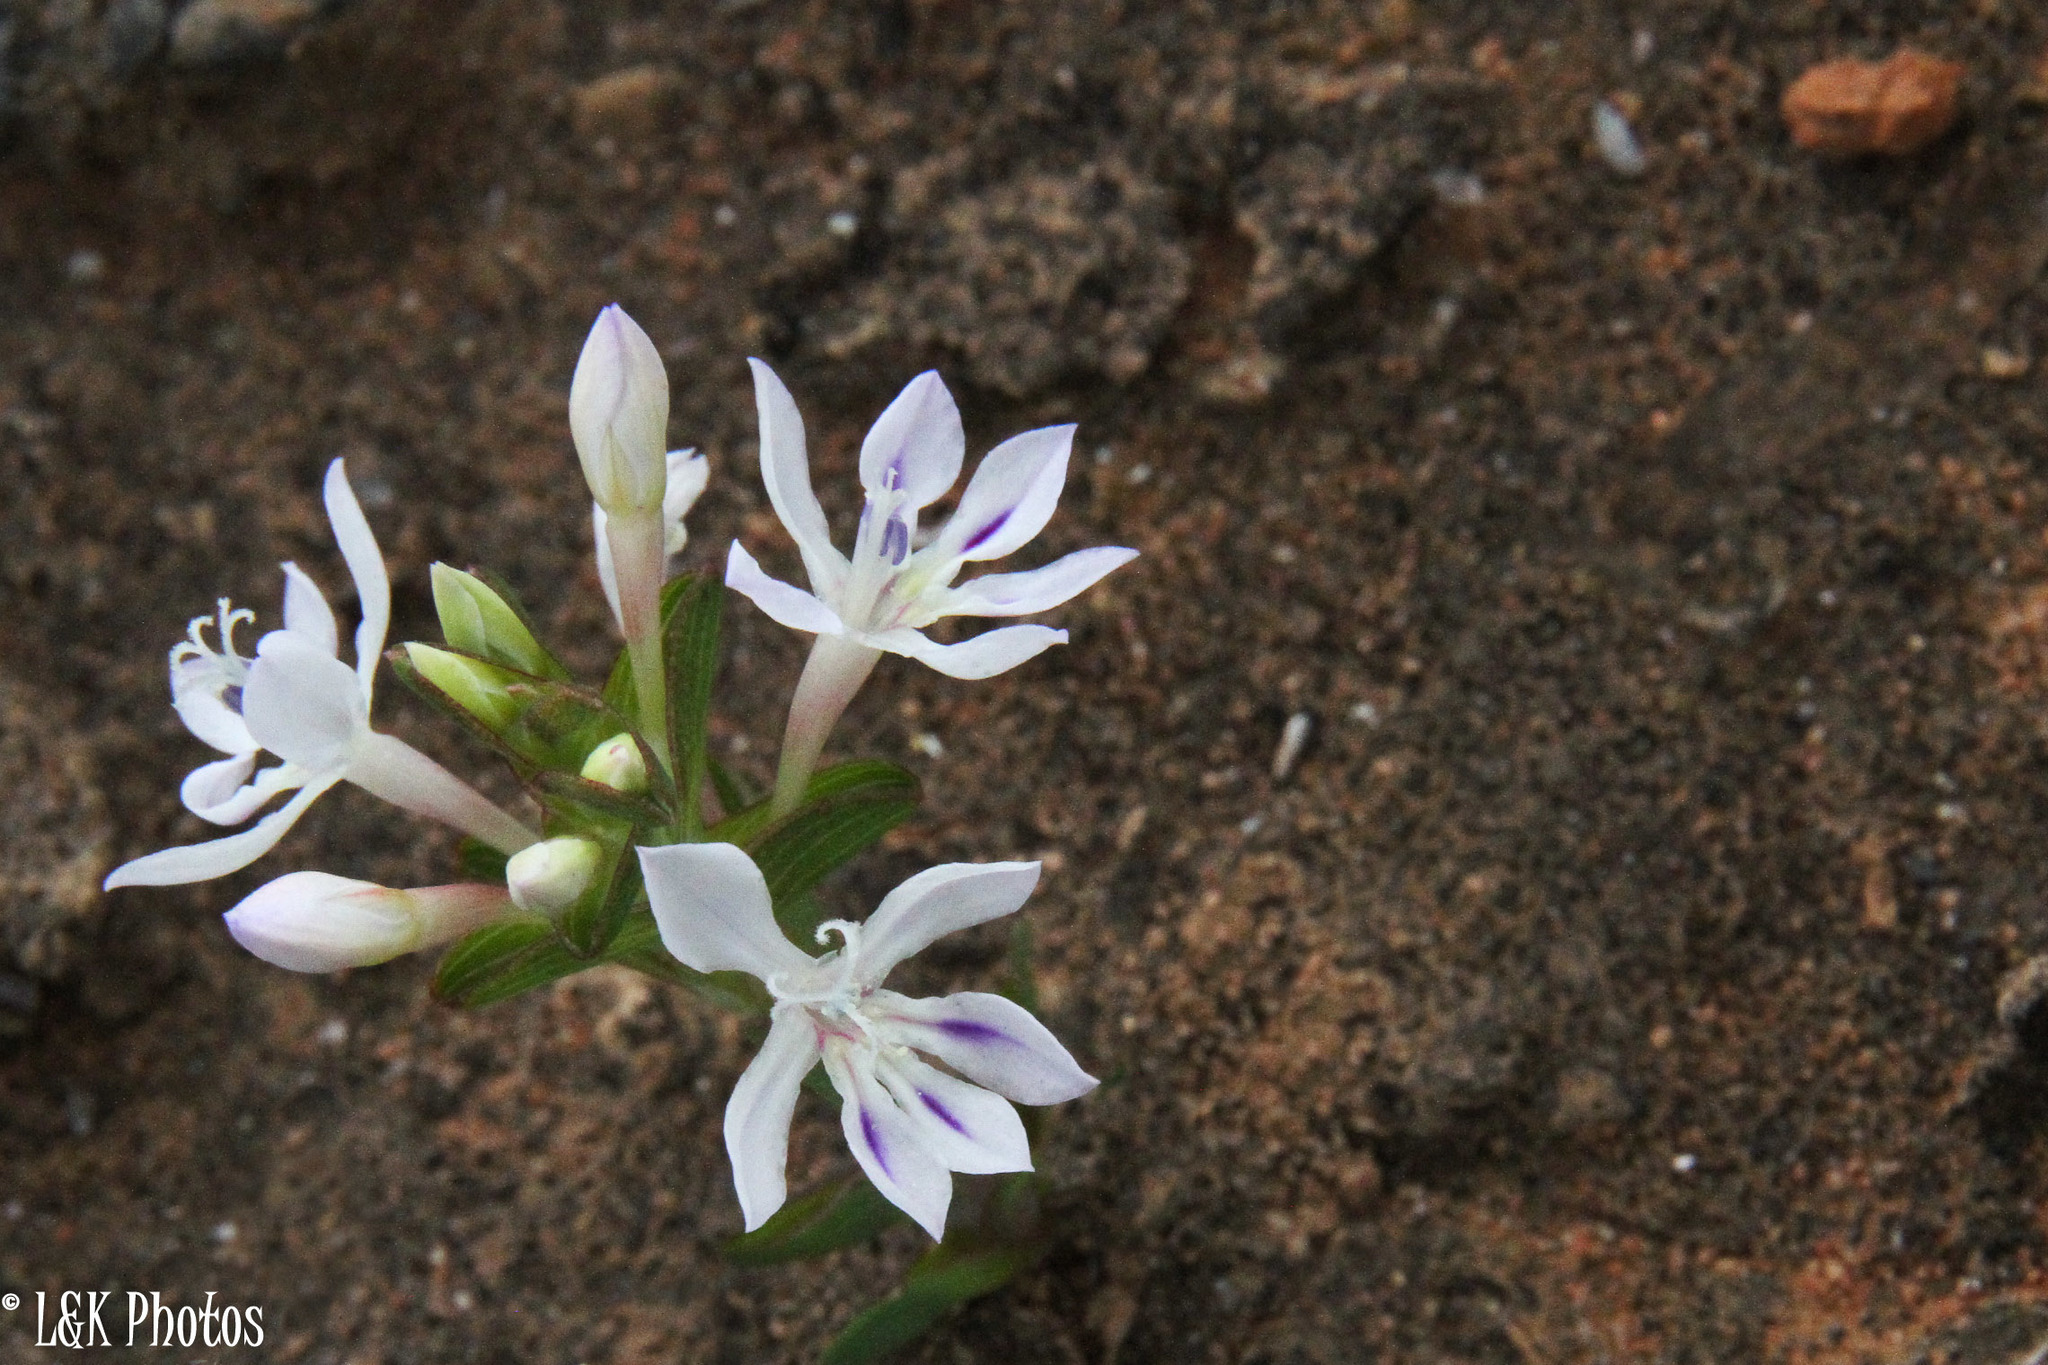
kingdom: Plantae
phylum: Tracheophyta
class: Liliopsida
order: Asparagales
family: Iridaceae
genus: Lapeirousia
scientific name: Lapeirousia angustifolia
